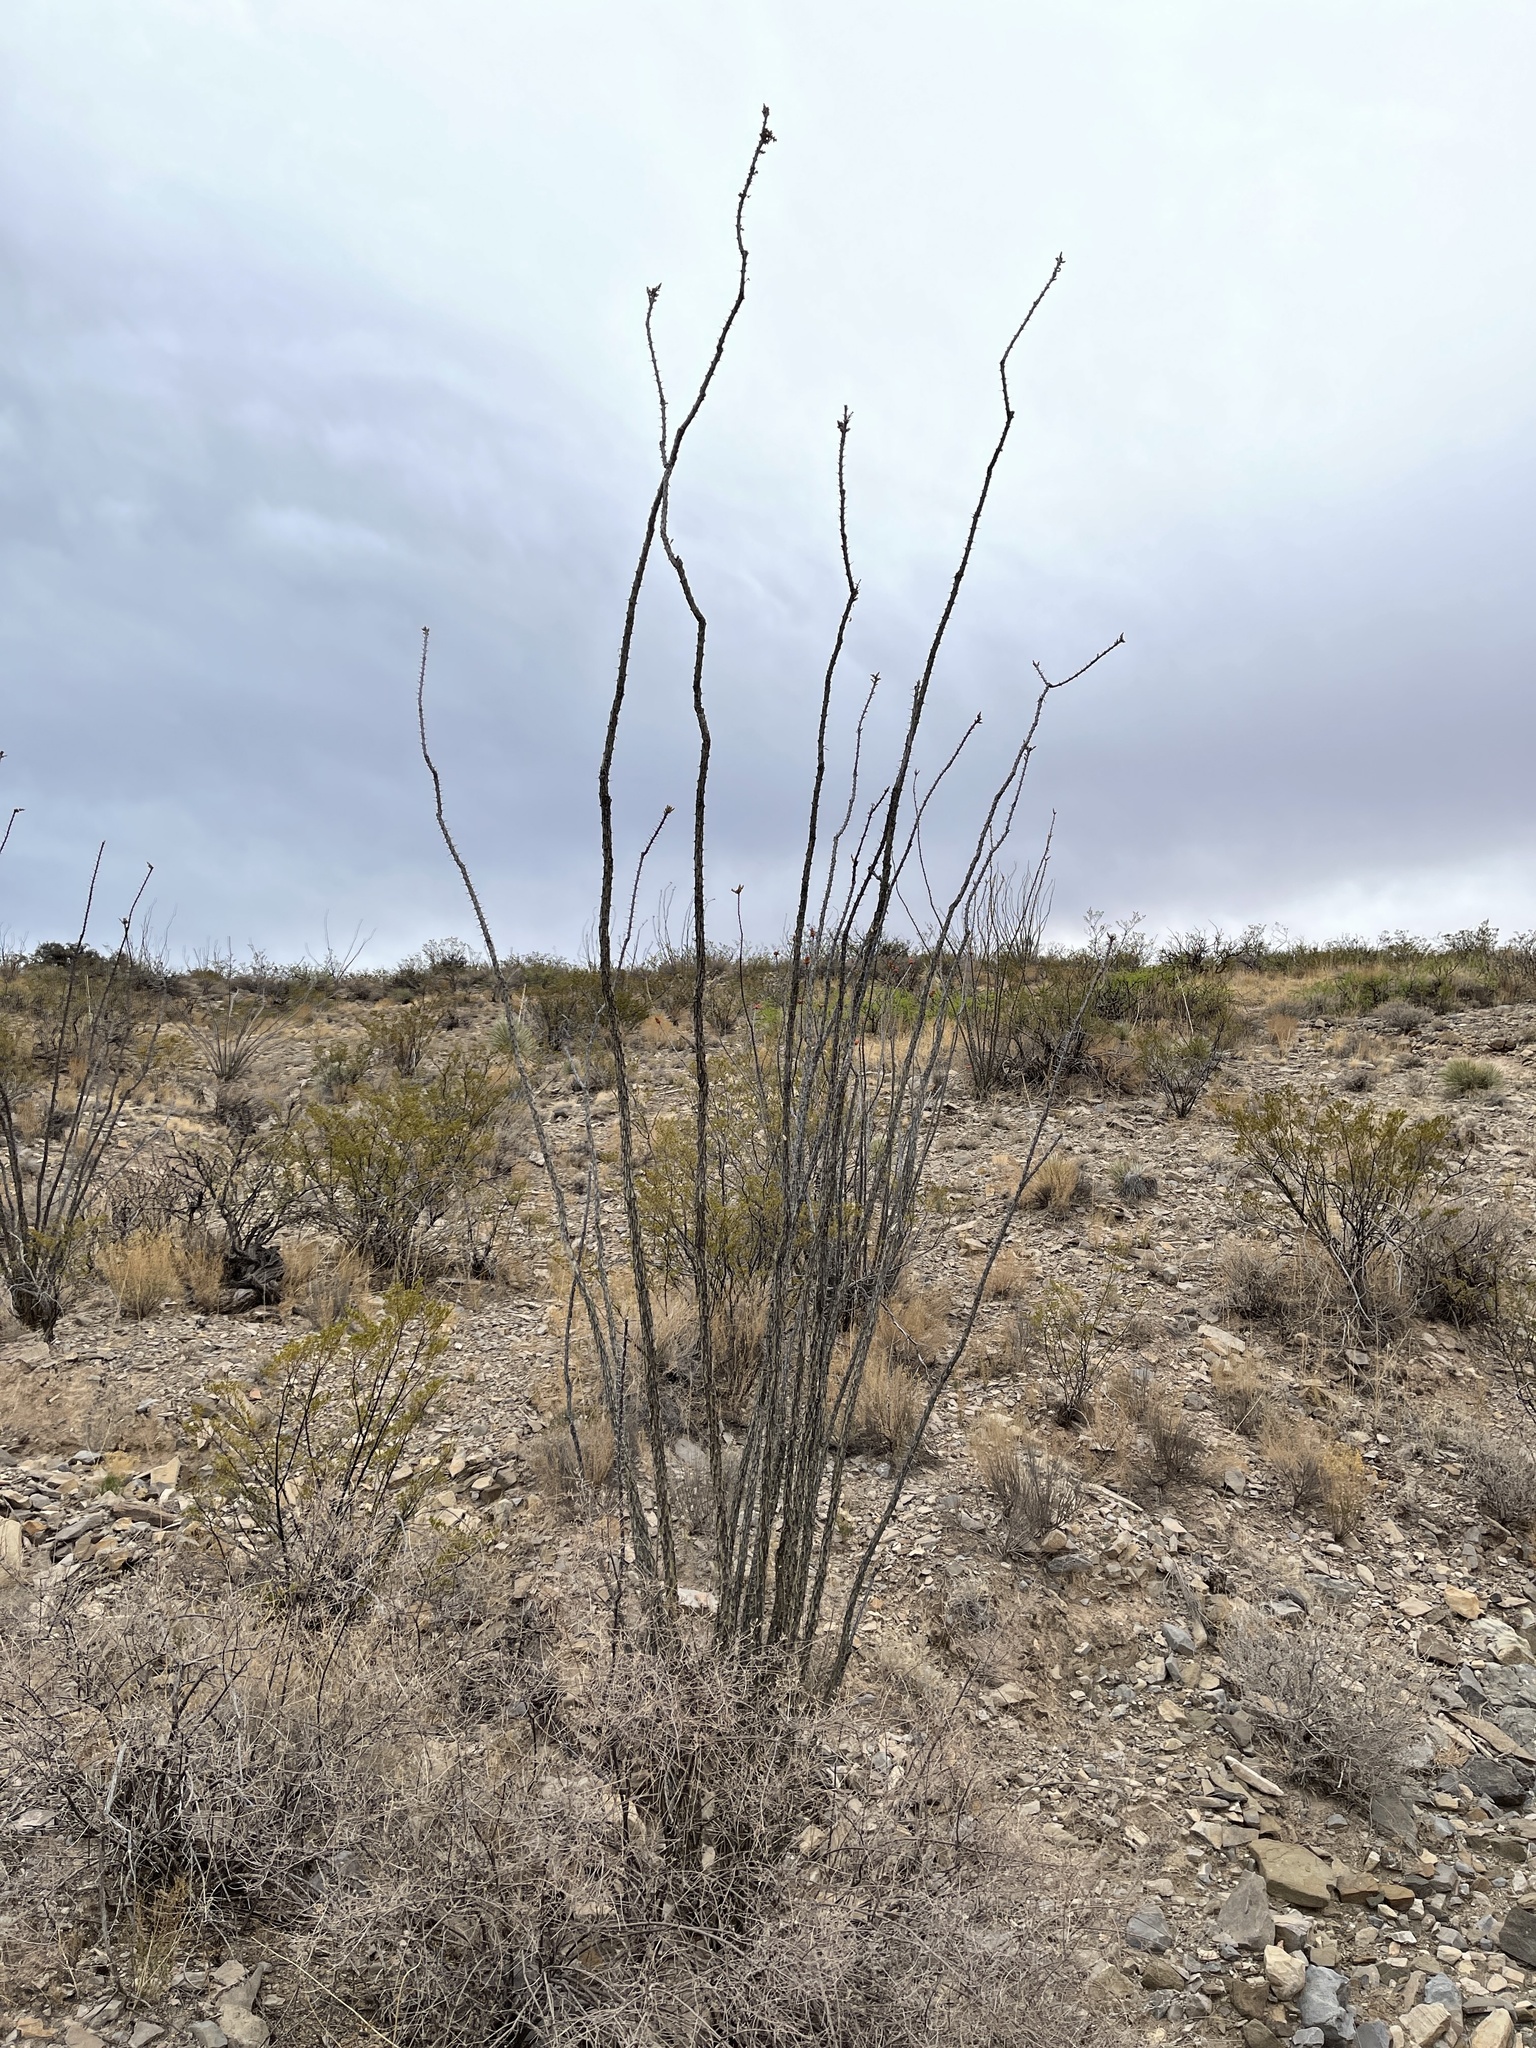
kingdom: Plantae
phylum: Tracheophyta
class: Magnoliopsida
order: Ericales
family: Fouquieriaceae
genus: Fouquieria
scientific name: Fouquieria splendens
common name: Vine-cactus
